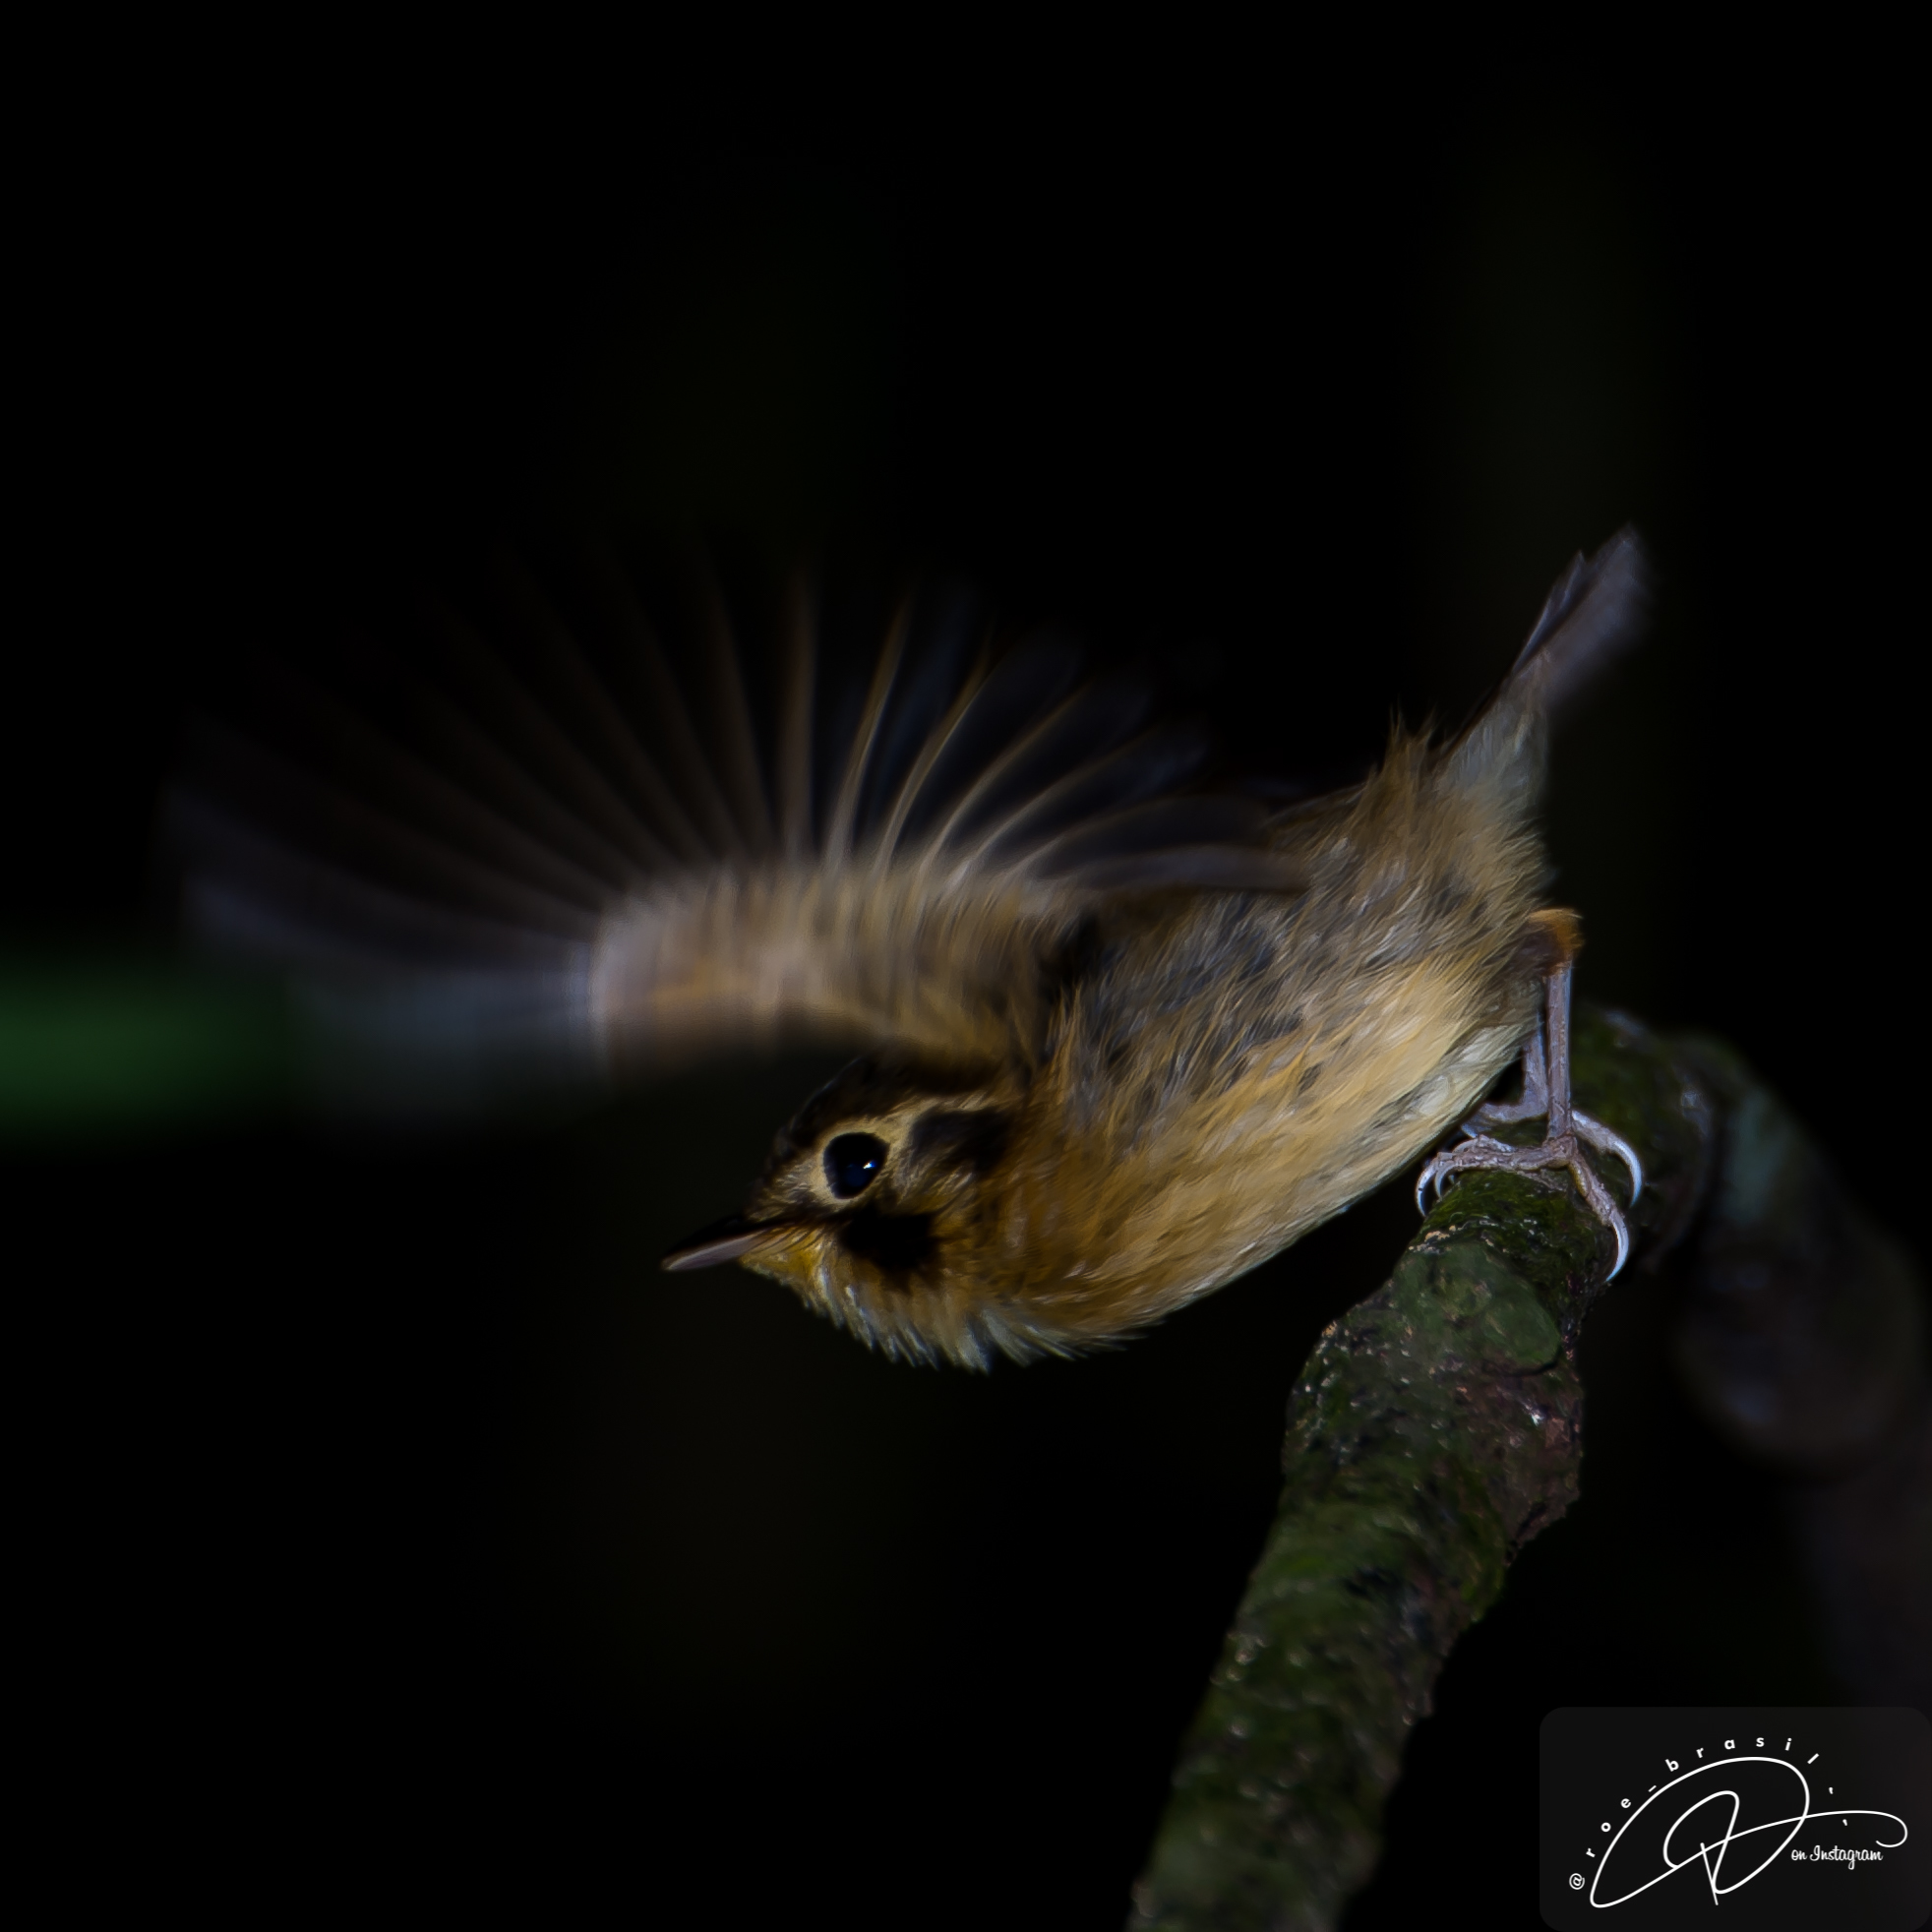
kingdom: Animalia
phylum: Chordata
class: Aves
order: Passeriformes
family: Tyrannidae
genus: Platyrinchus
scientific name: Platyrinchus mystaceus
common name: White-throated spadebill
